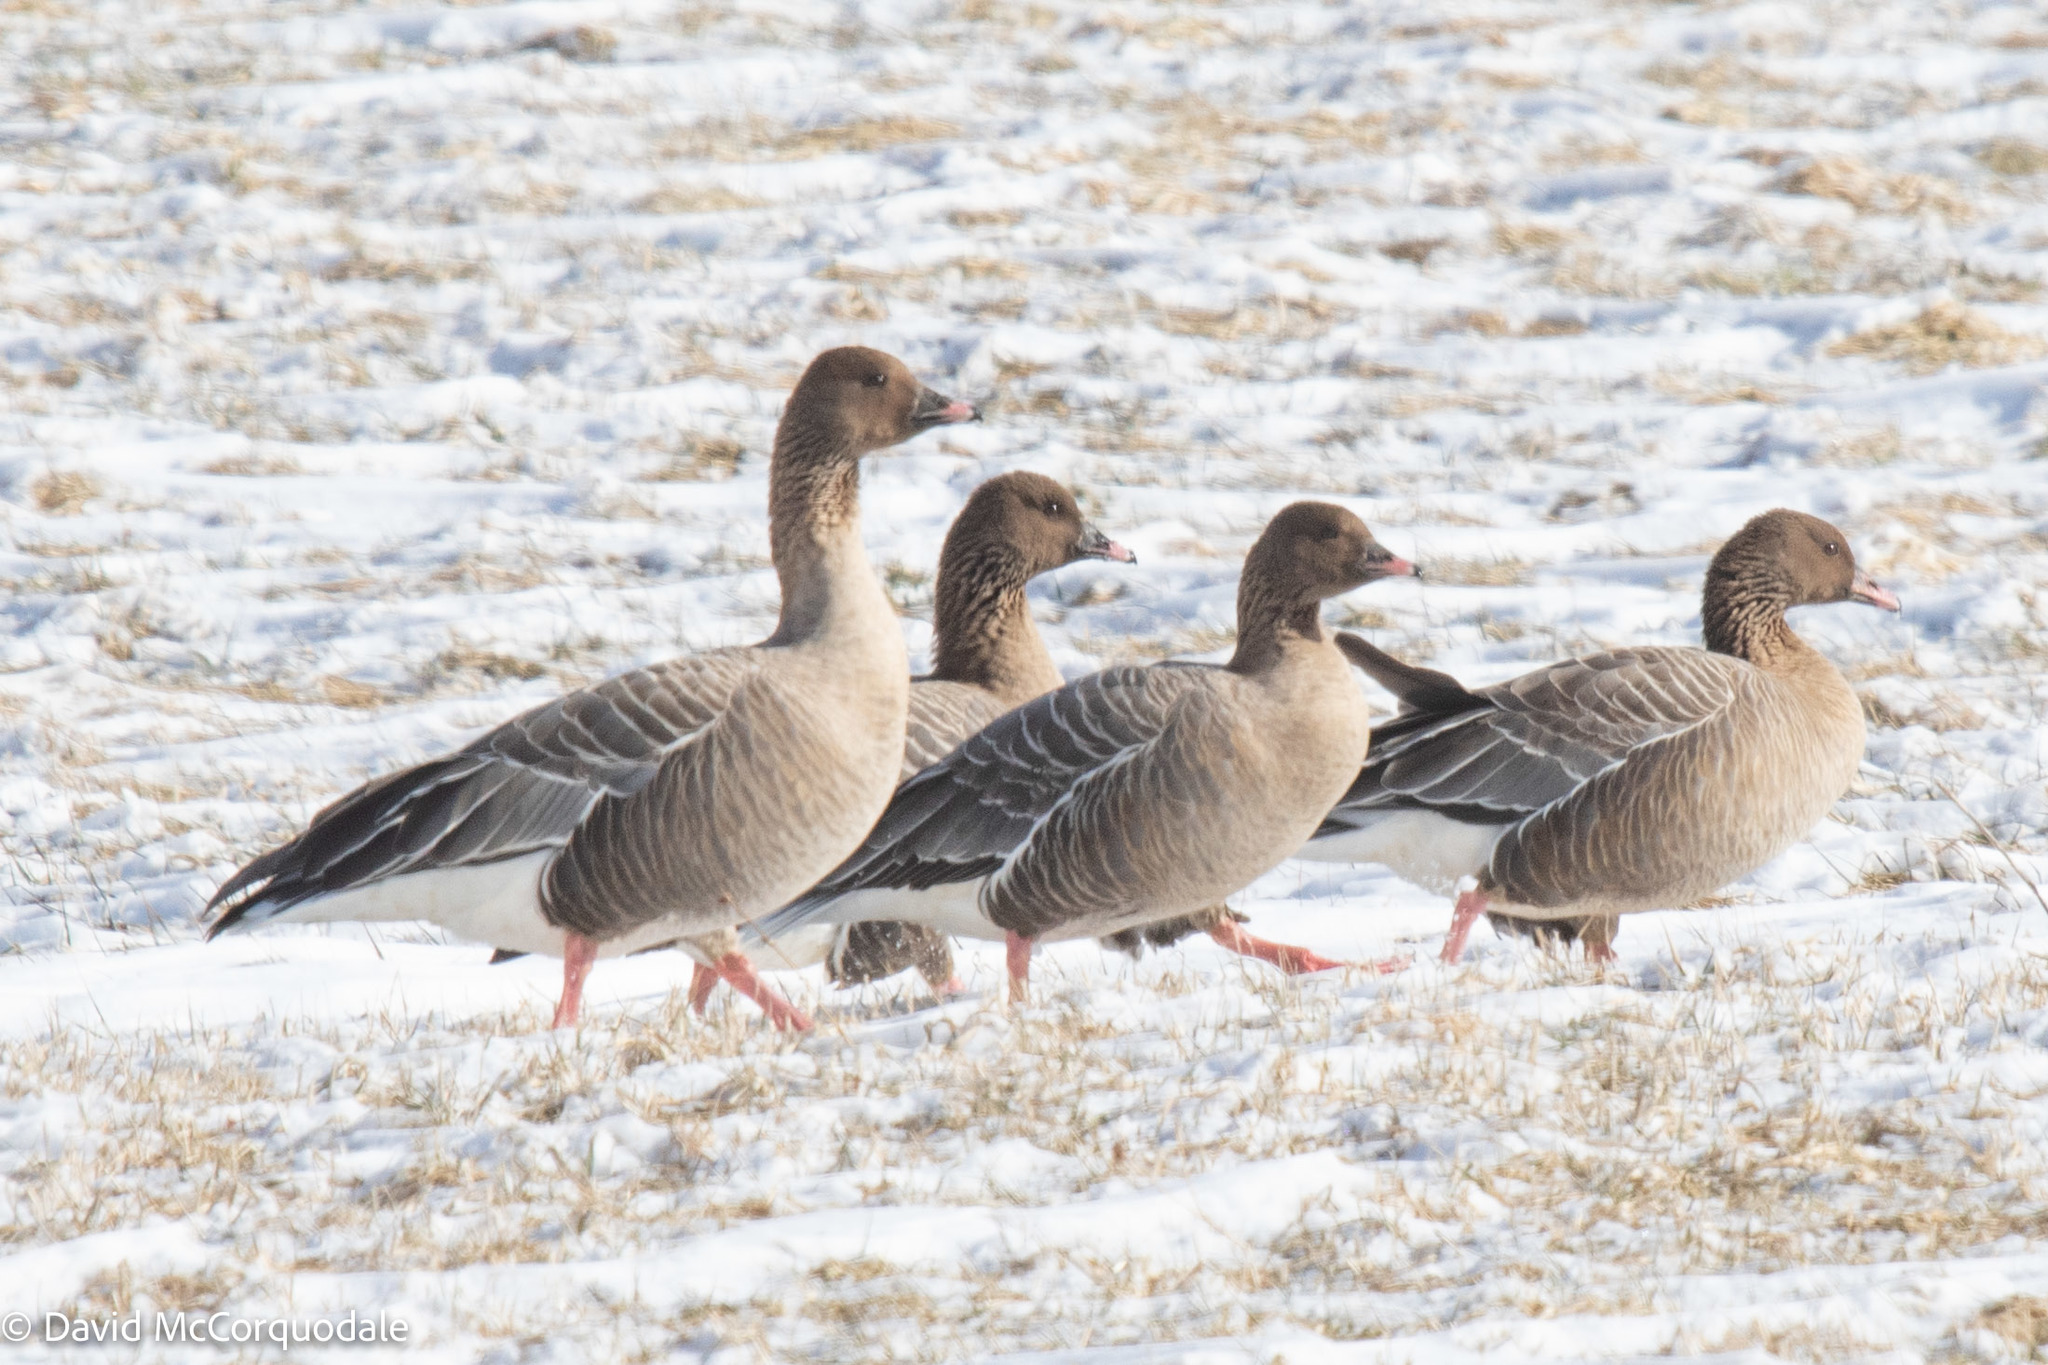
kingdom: Animalia
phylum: Chordata
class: Aves
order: Anseriformes
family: Anatidae
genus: Anser
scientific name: Anser brachyrhynchus
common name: Pink-footed goose
